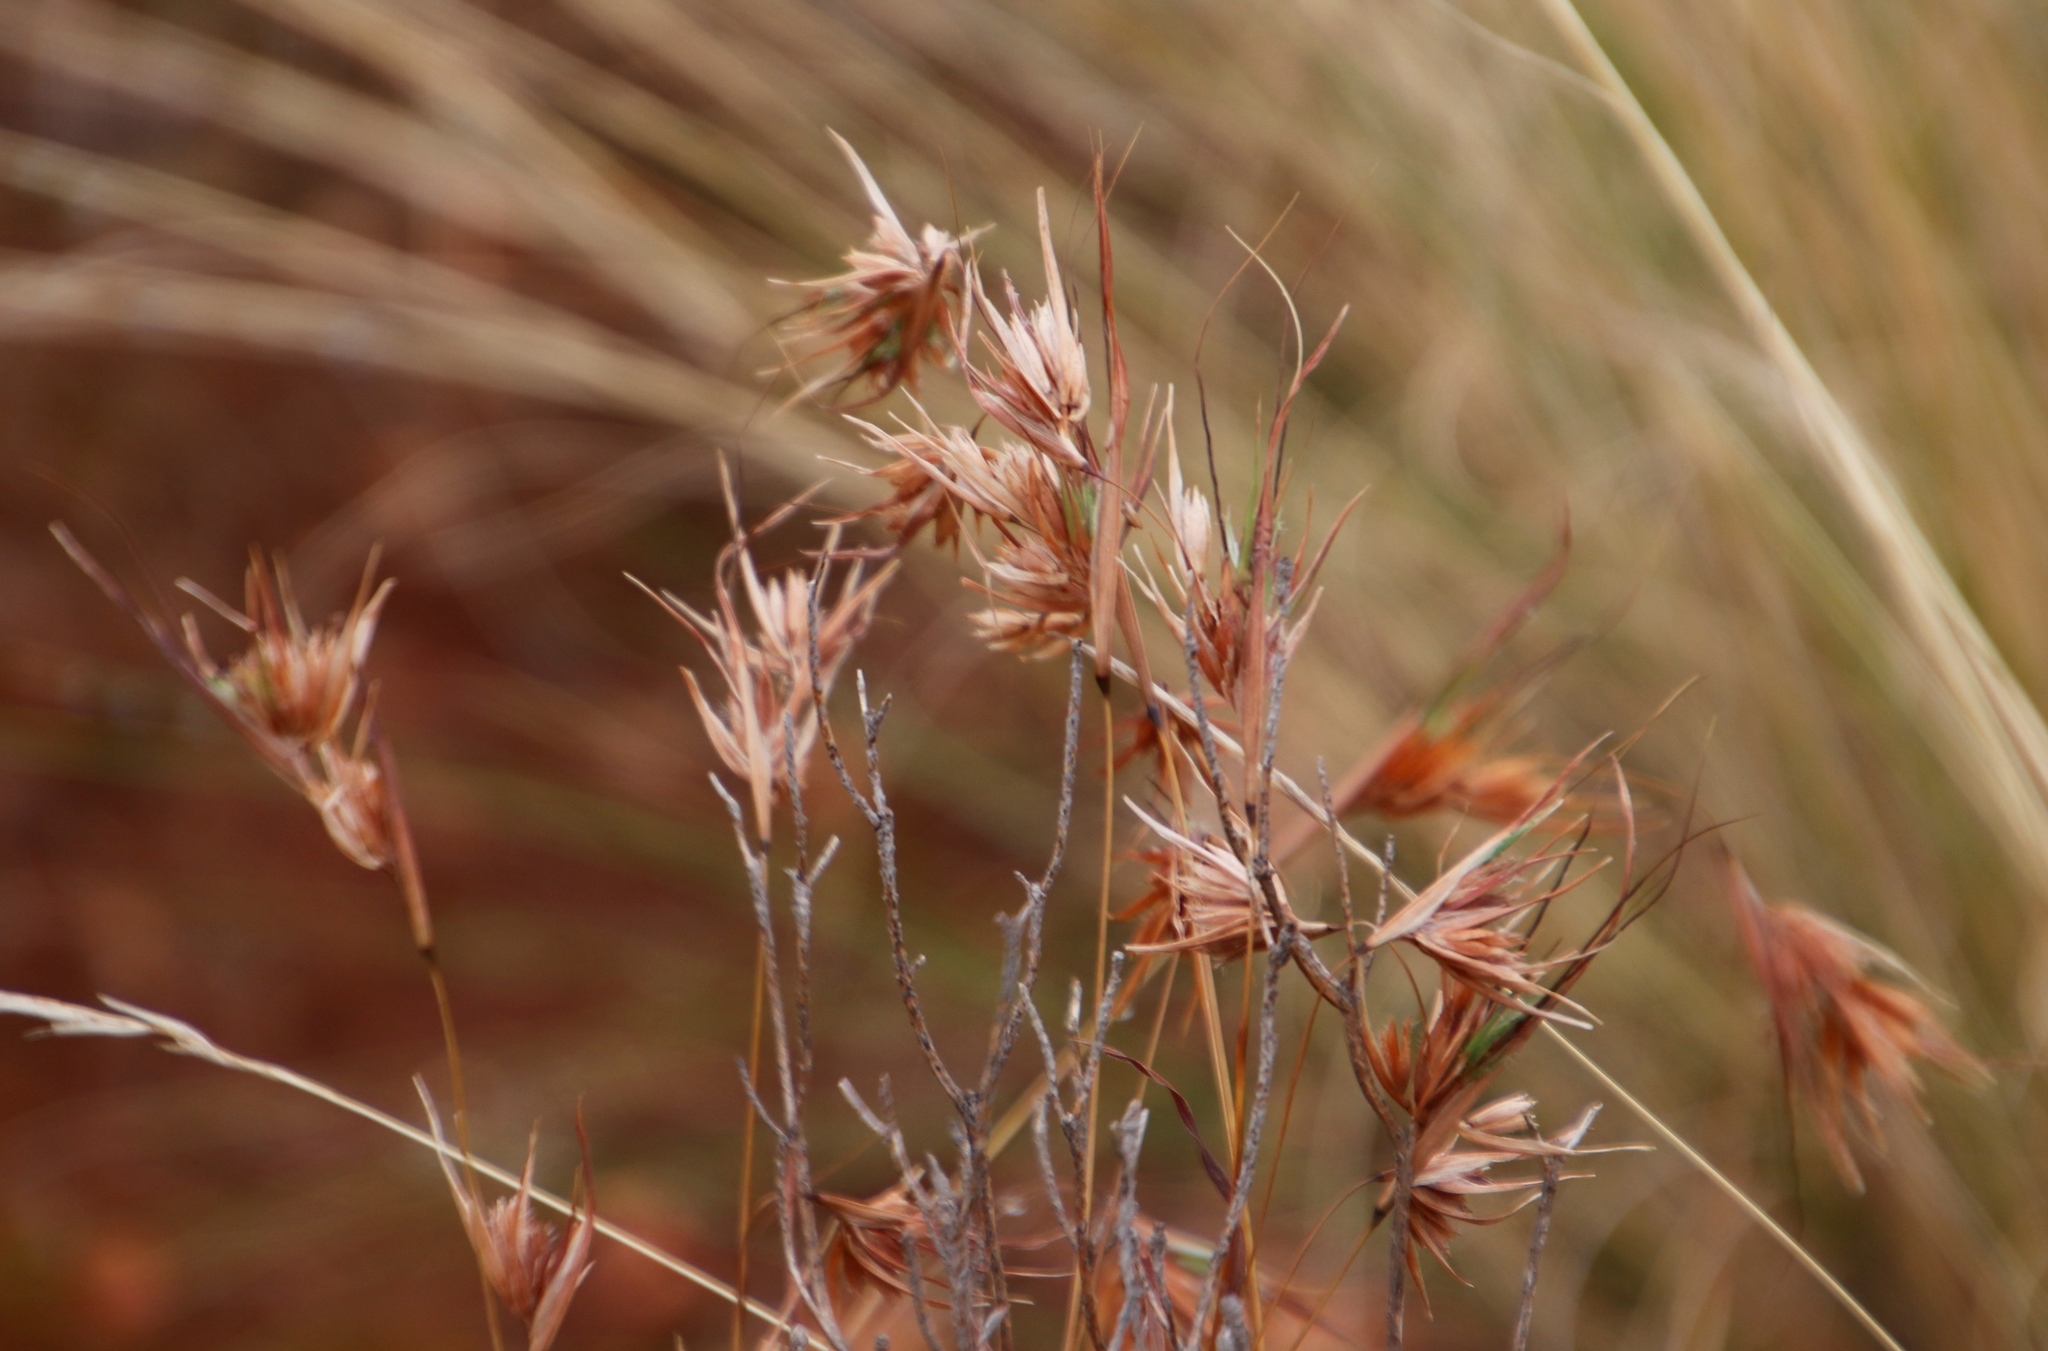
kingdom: Plantae
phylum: Tracheophyta
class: Liliopsida
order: Poales
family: Poaceae
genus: Themeda
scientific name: Themeda triandra
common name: Kangaroo grass
